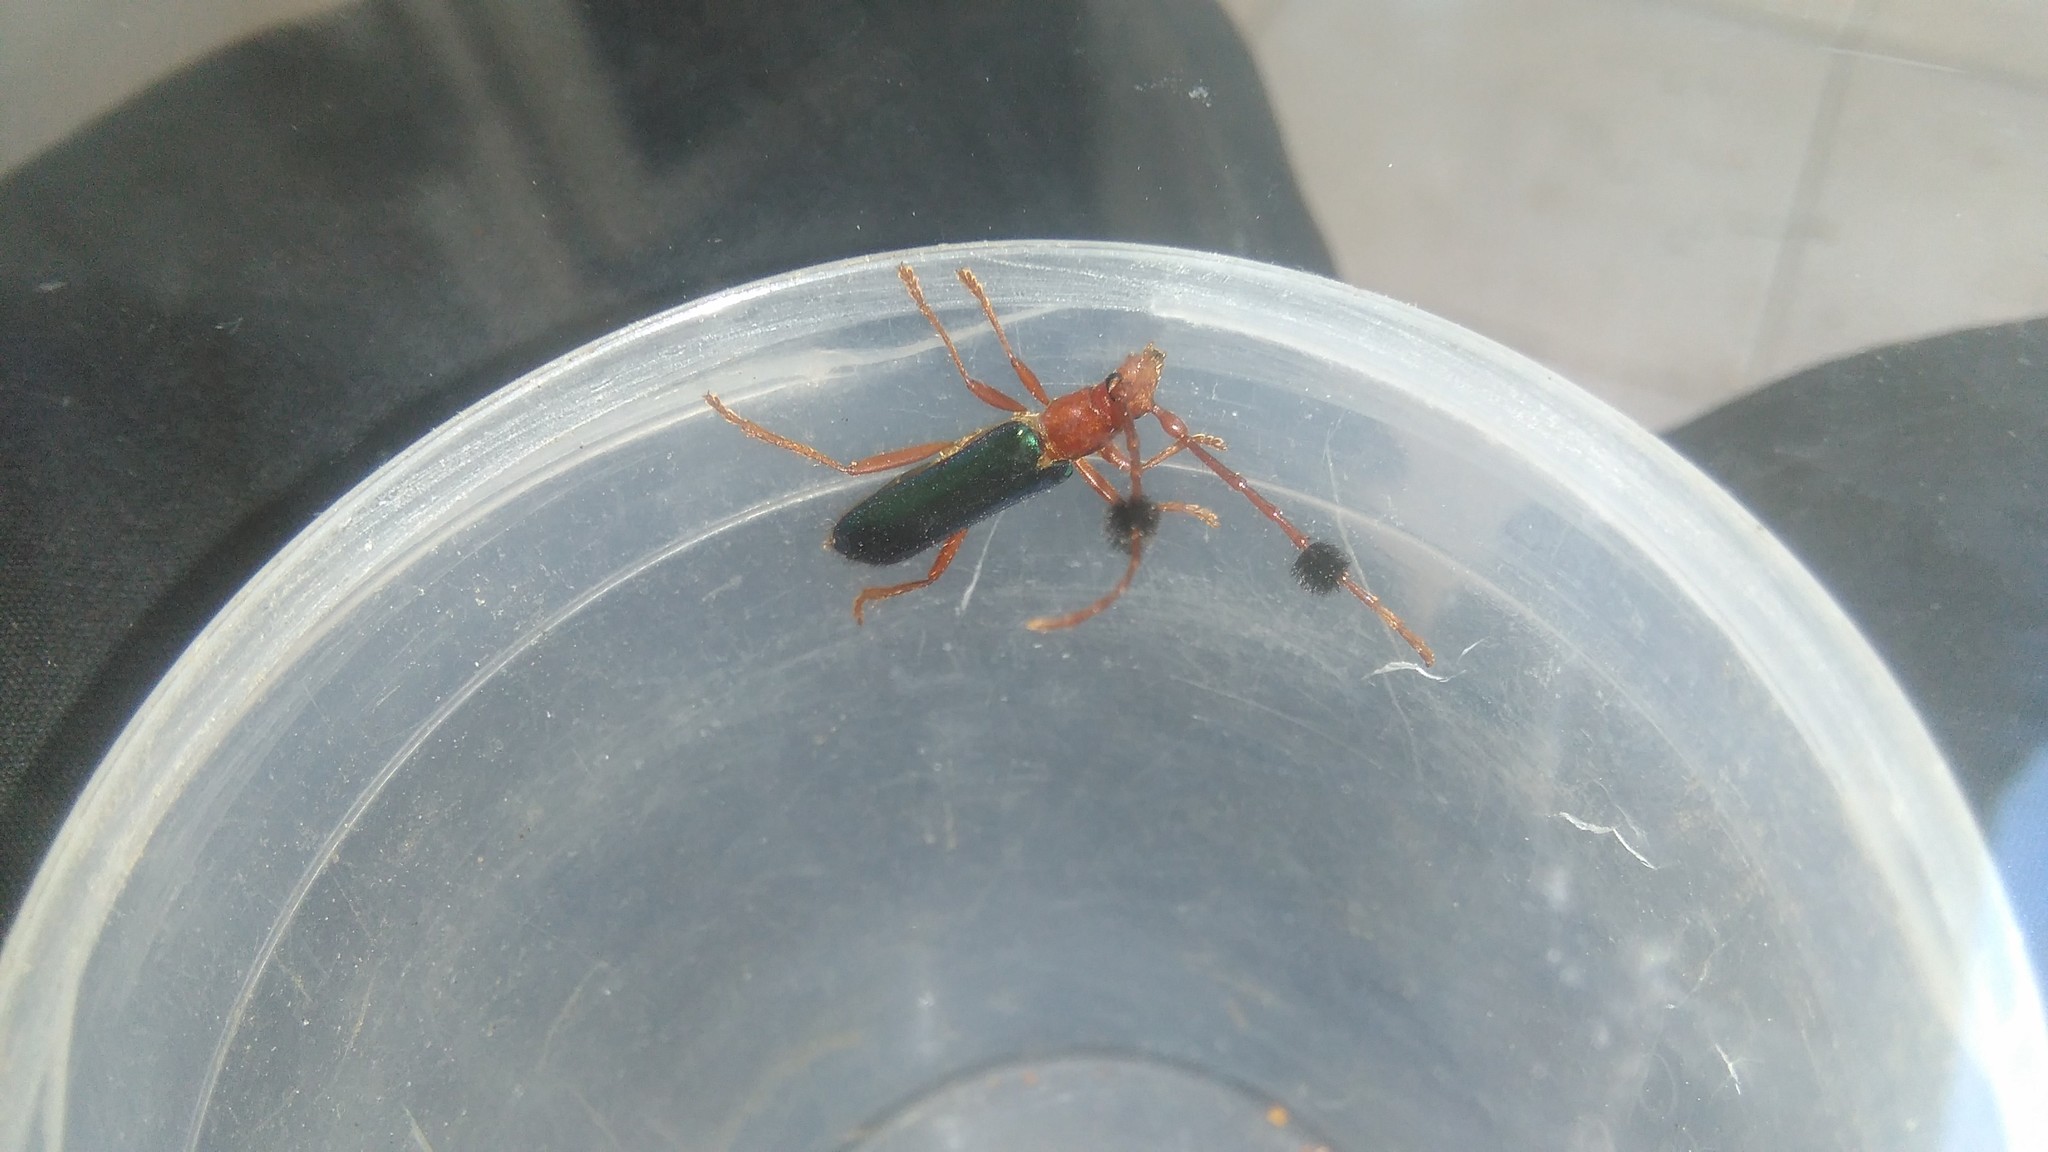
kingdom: Animalia
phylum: Arthropoda
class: Insecta
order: Coleoptera
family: Cerambycidae
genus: Compsocerus
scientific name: Compsocerus violaceus
